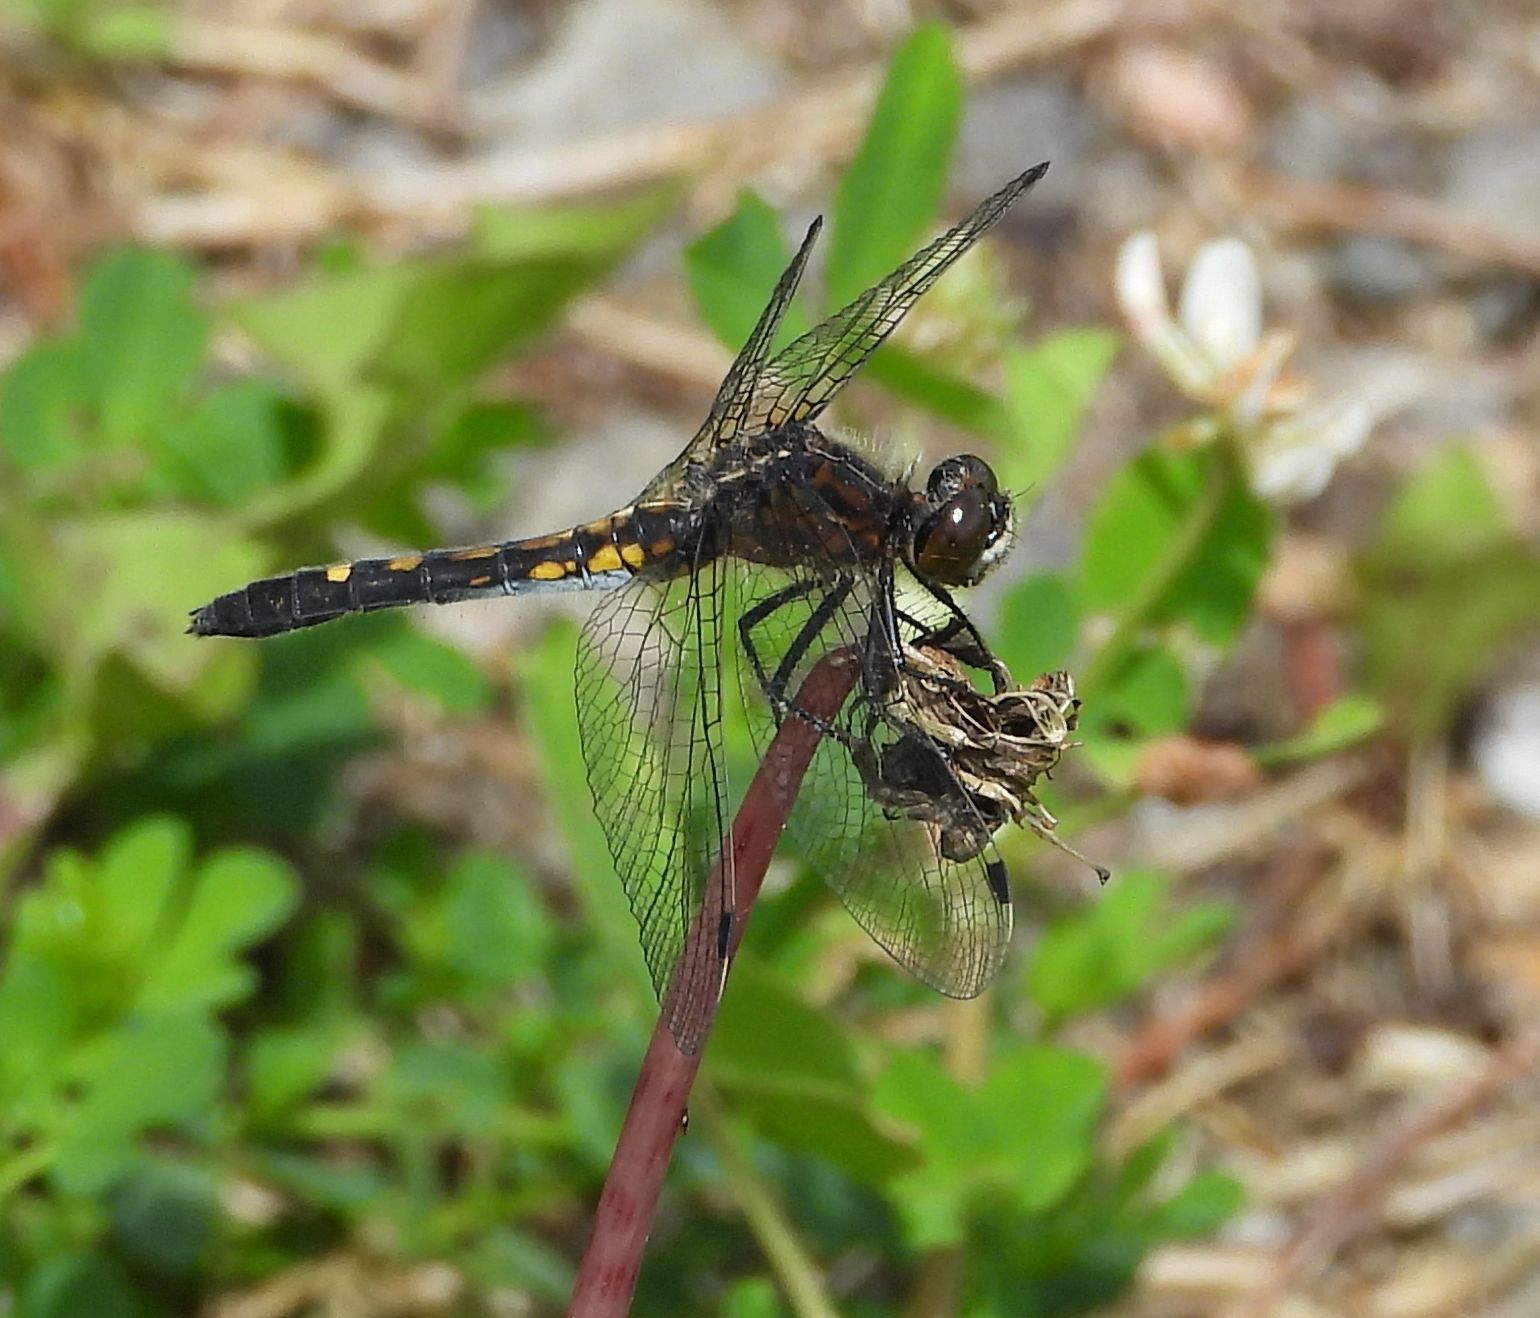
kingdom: Animalia
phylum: Arthropoda
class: Insecta
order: Odonata
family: Libellulidae
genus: Leucorrhinia
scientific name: Leucorrhinia intacta
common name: Dot-tailed whiteface
